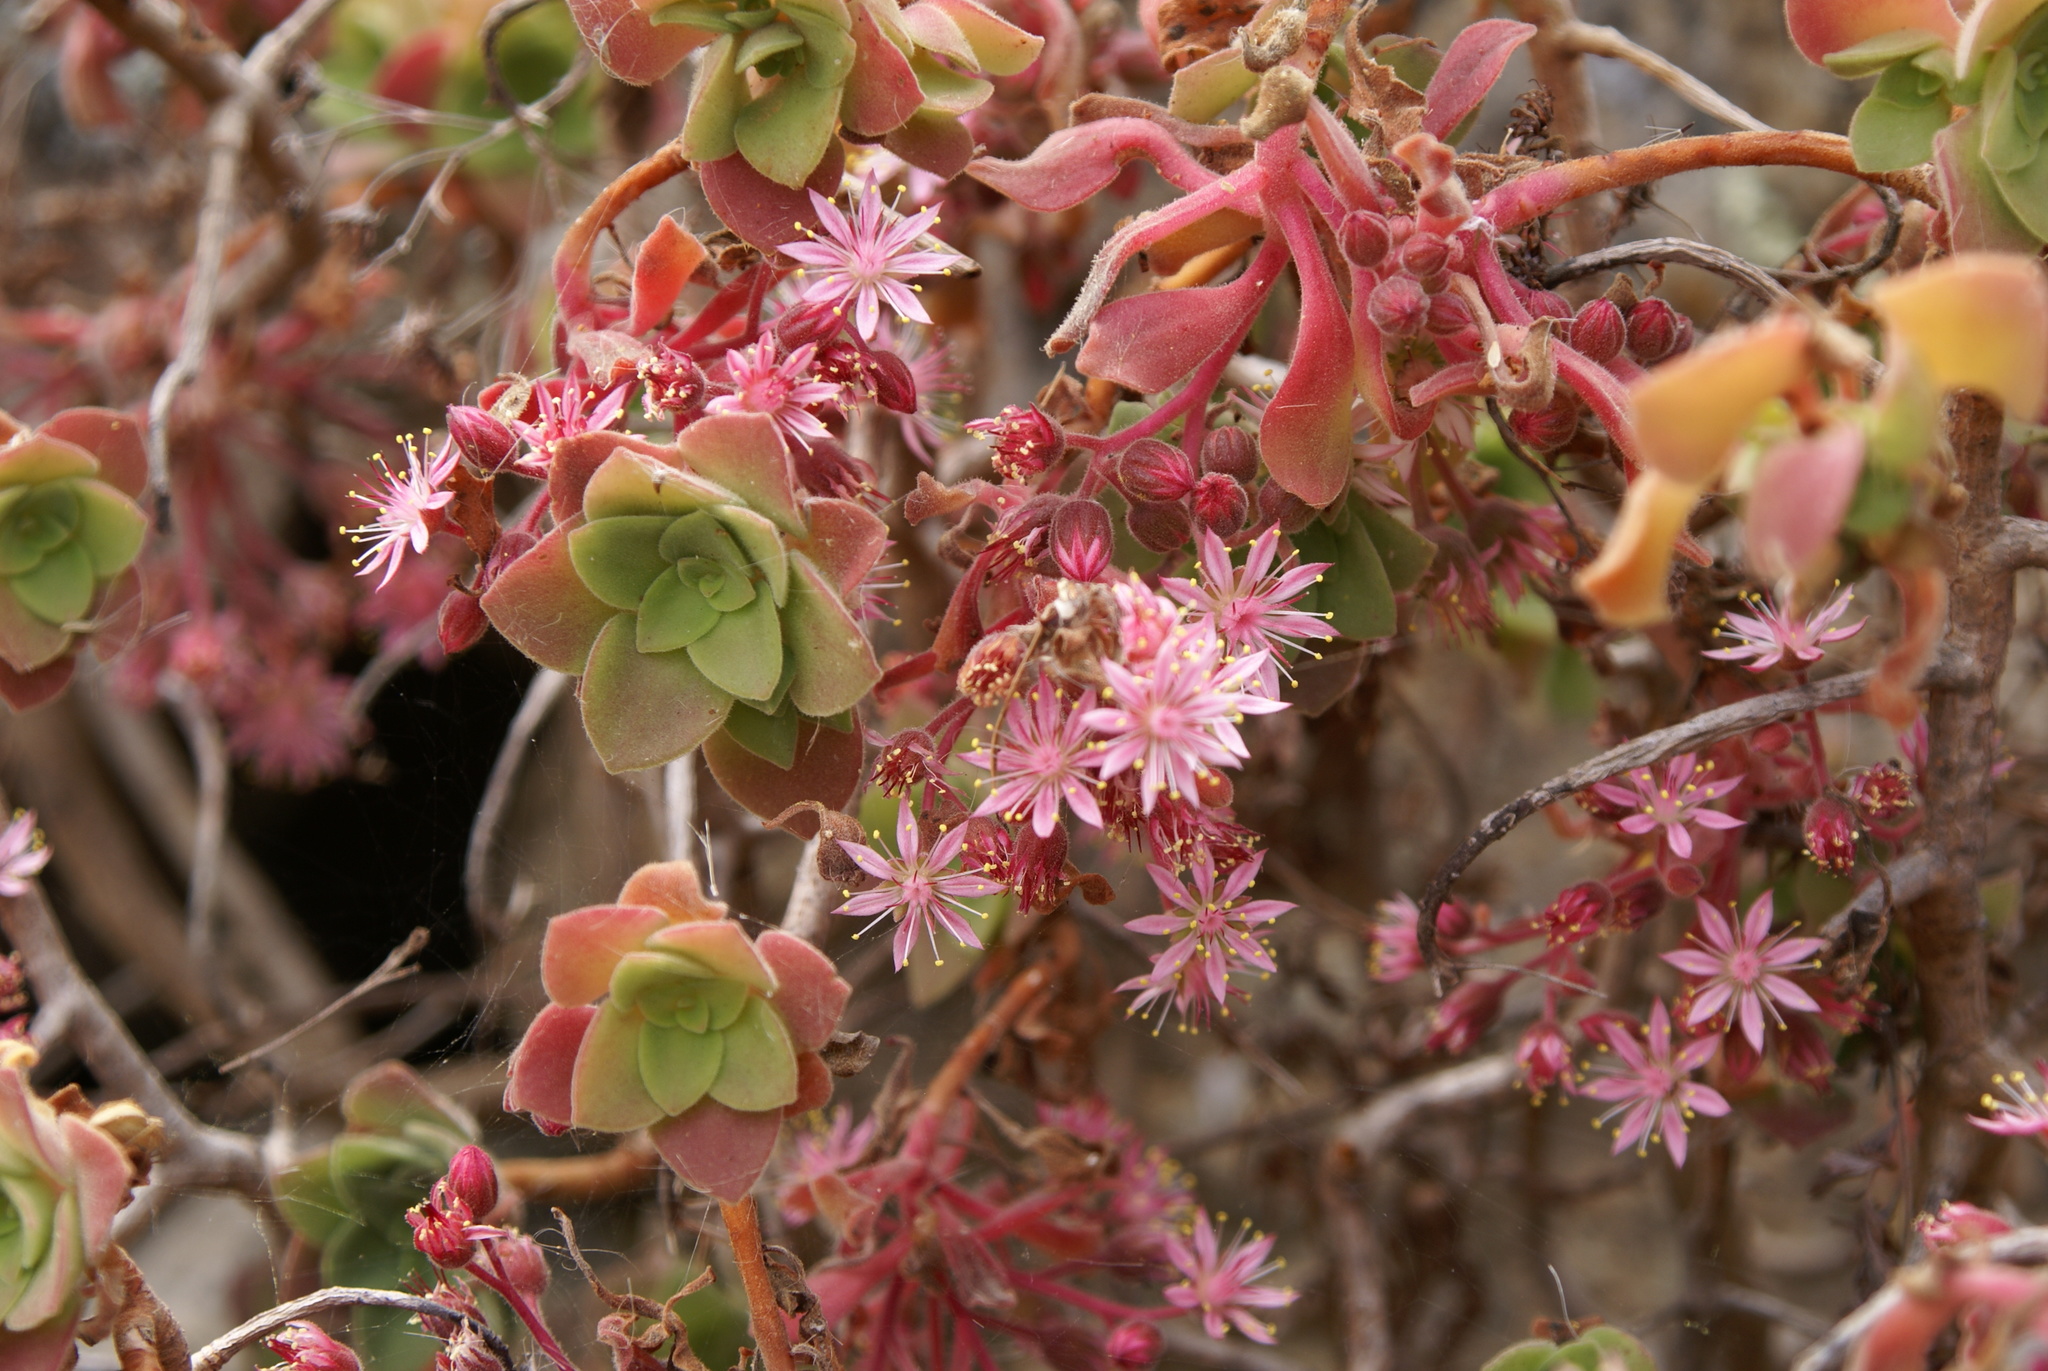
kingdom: Plantae
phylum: Tracheophyta
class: Magnoliopsida
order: Saxifragales
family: Crassulaceae
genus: Aeonium
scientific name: Aeonium goochiae
